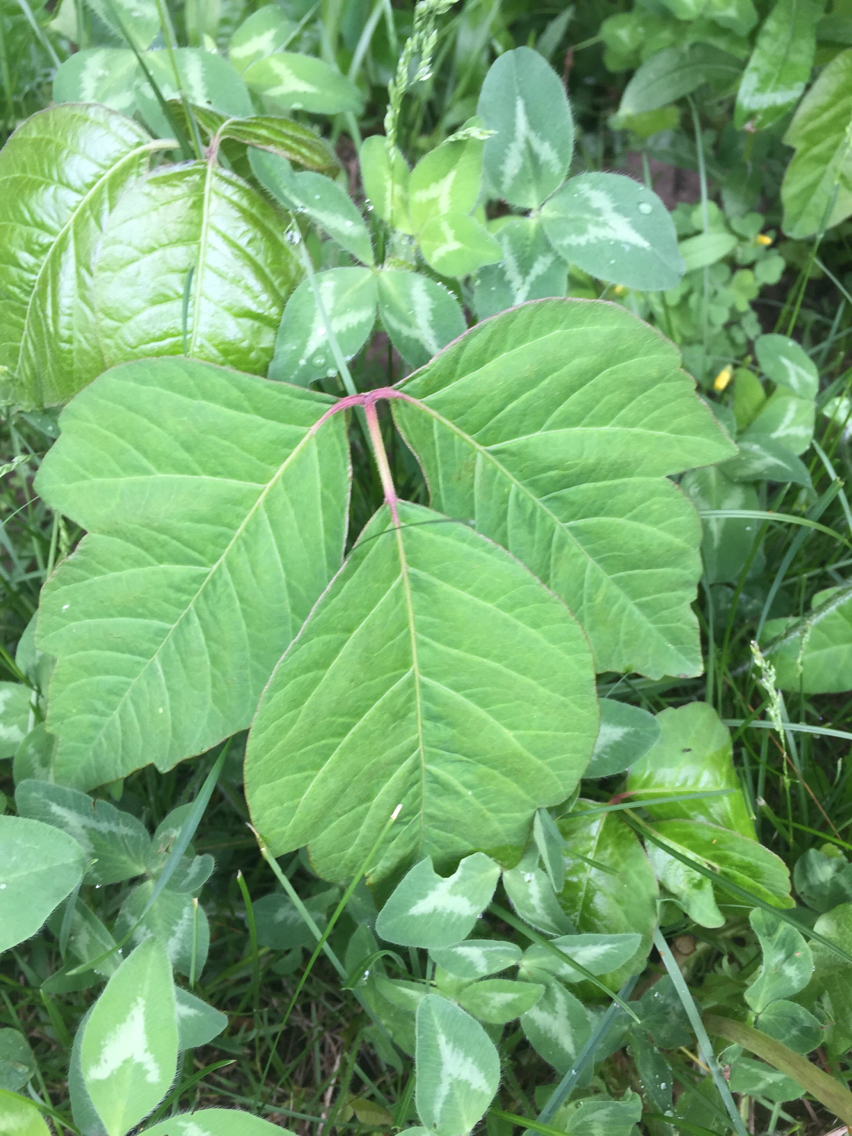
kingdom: Plantae
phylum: Tracheophyta
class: Magnoliopsida
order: Sapindales
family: Anacardiaceae
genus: Toxicodendron
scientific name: Toxicodendron radicans
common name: Poison ivy
